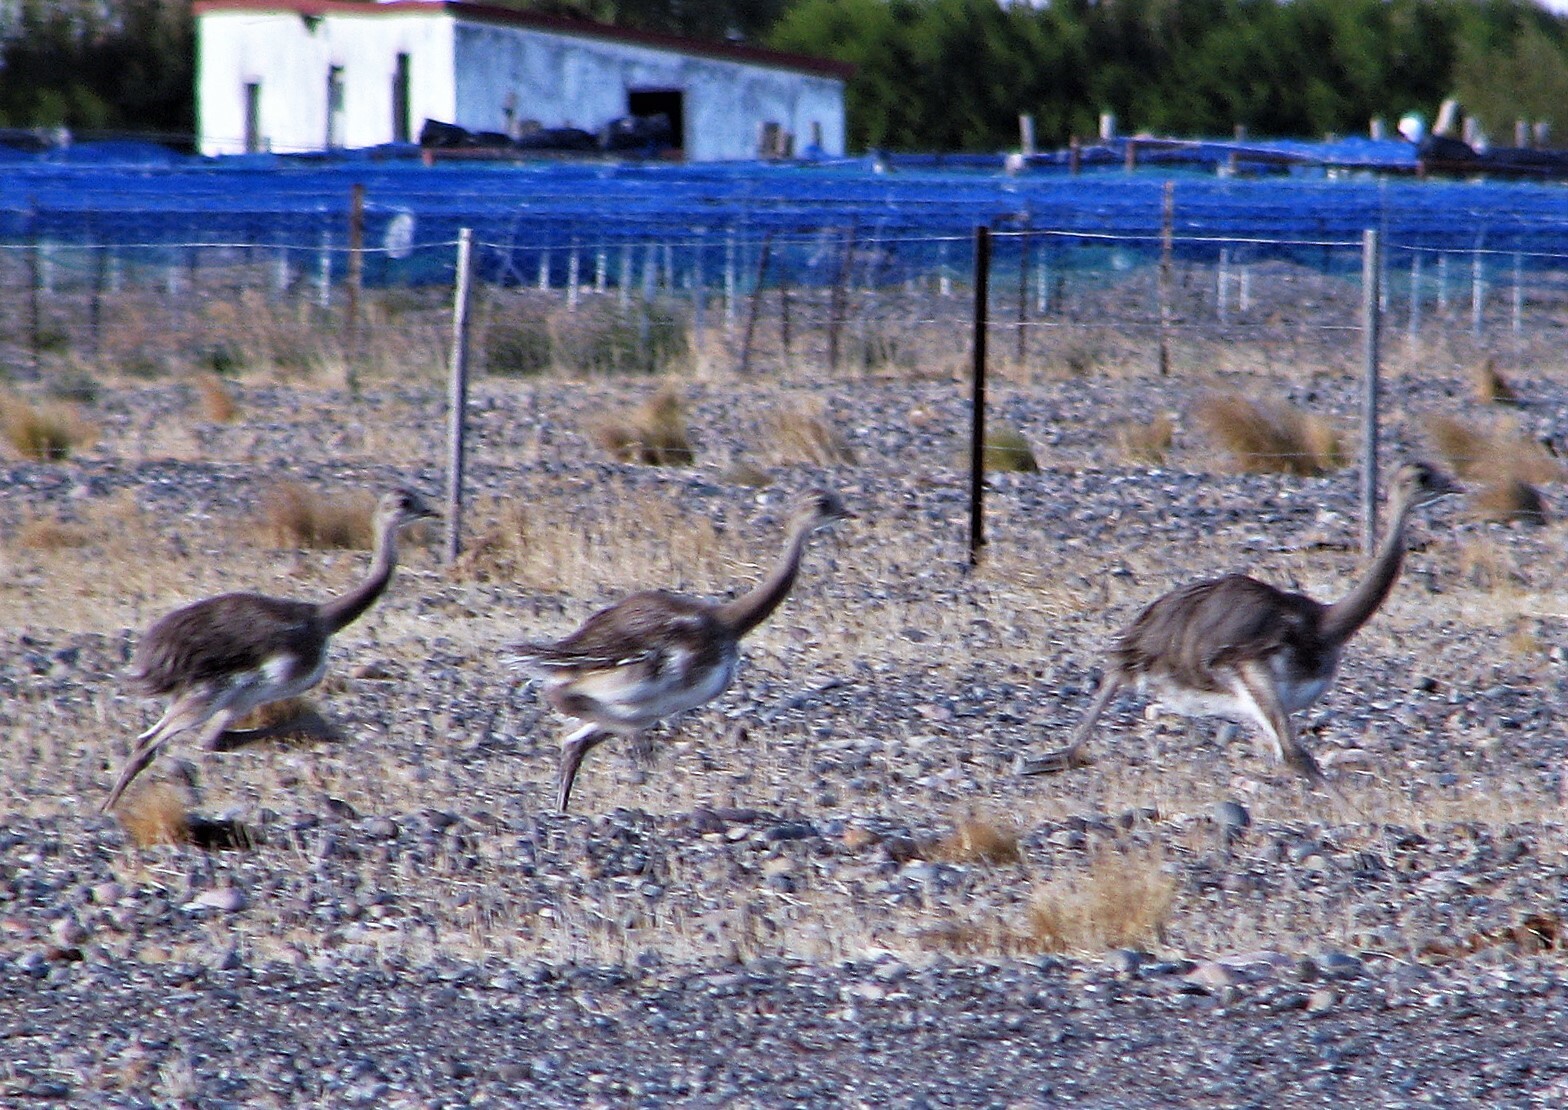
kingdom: Animalia
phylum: Chordata
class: Aves
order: Rheiformes
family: Rheidae
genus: Rhea
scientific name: Rhea pennata
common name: Lesser rhea
